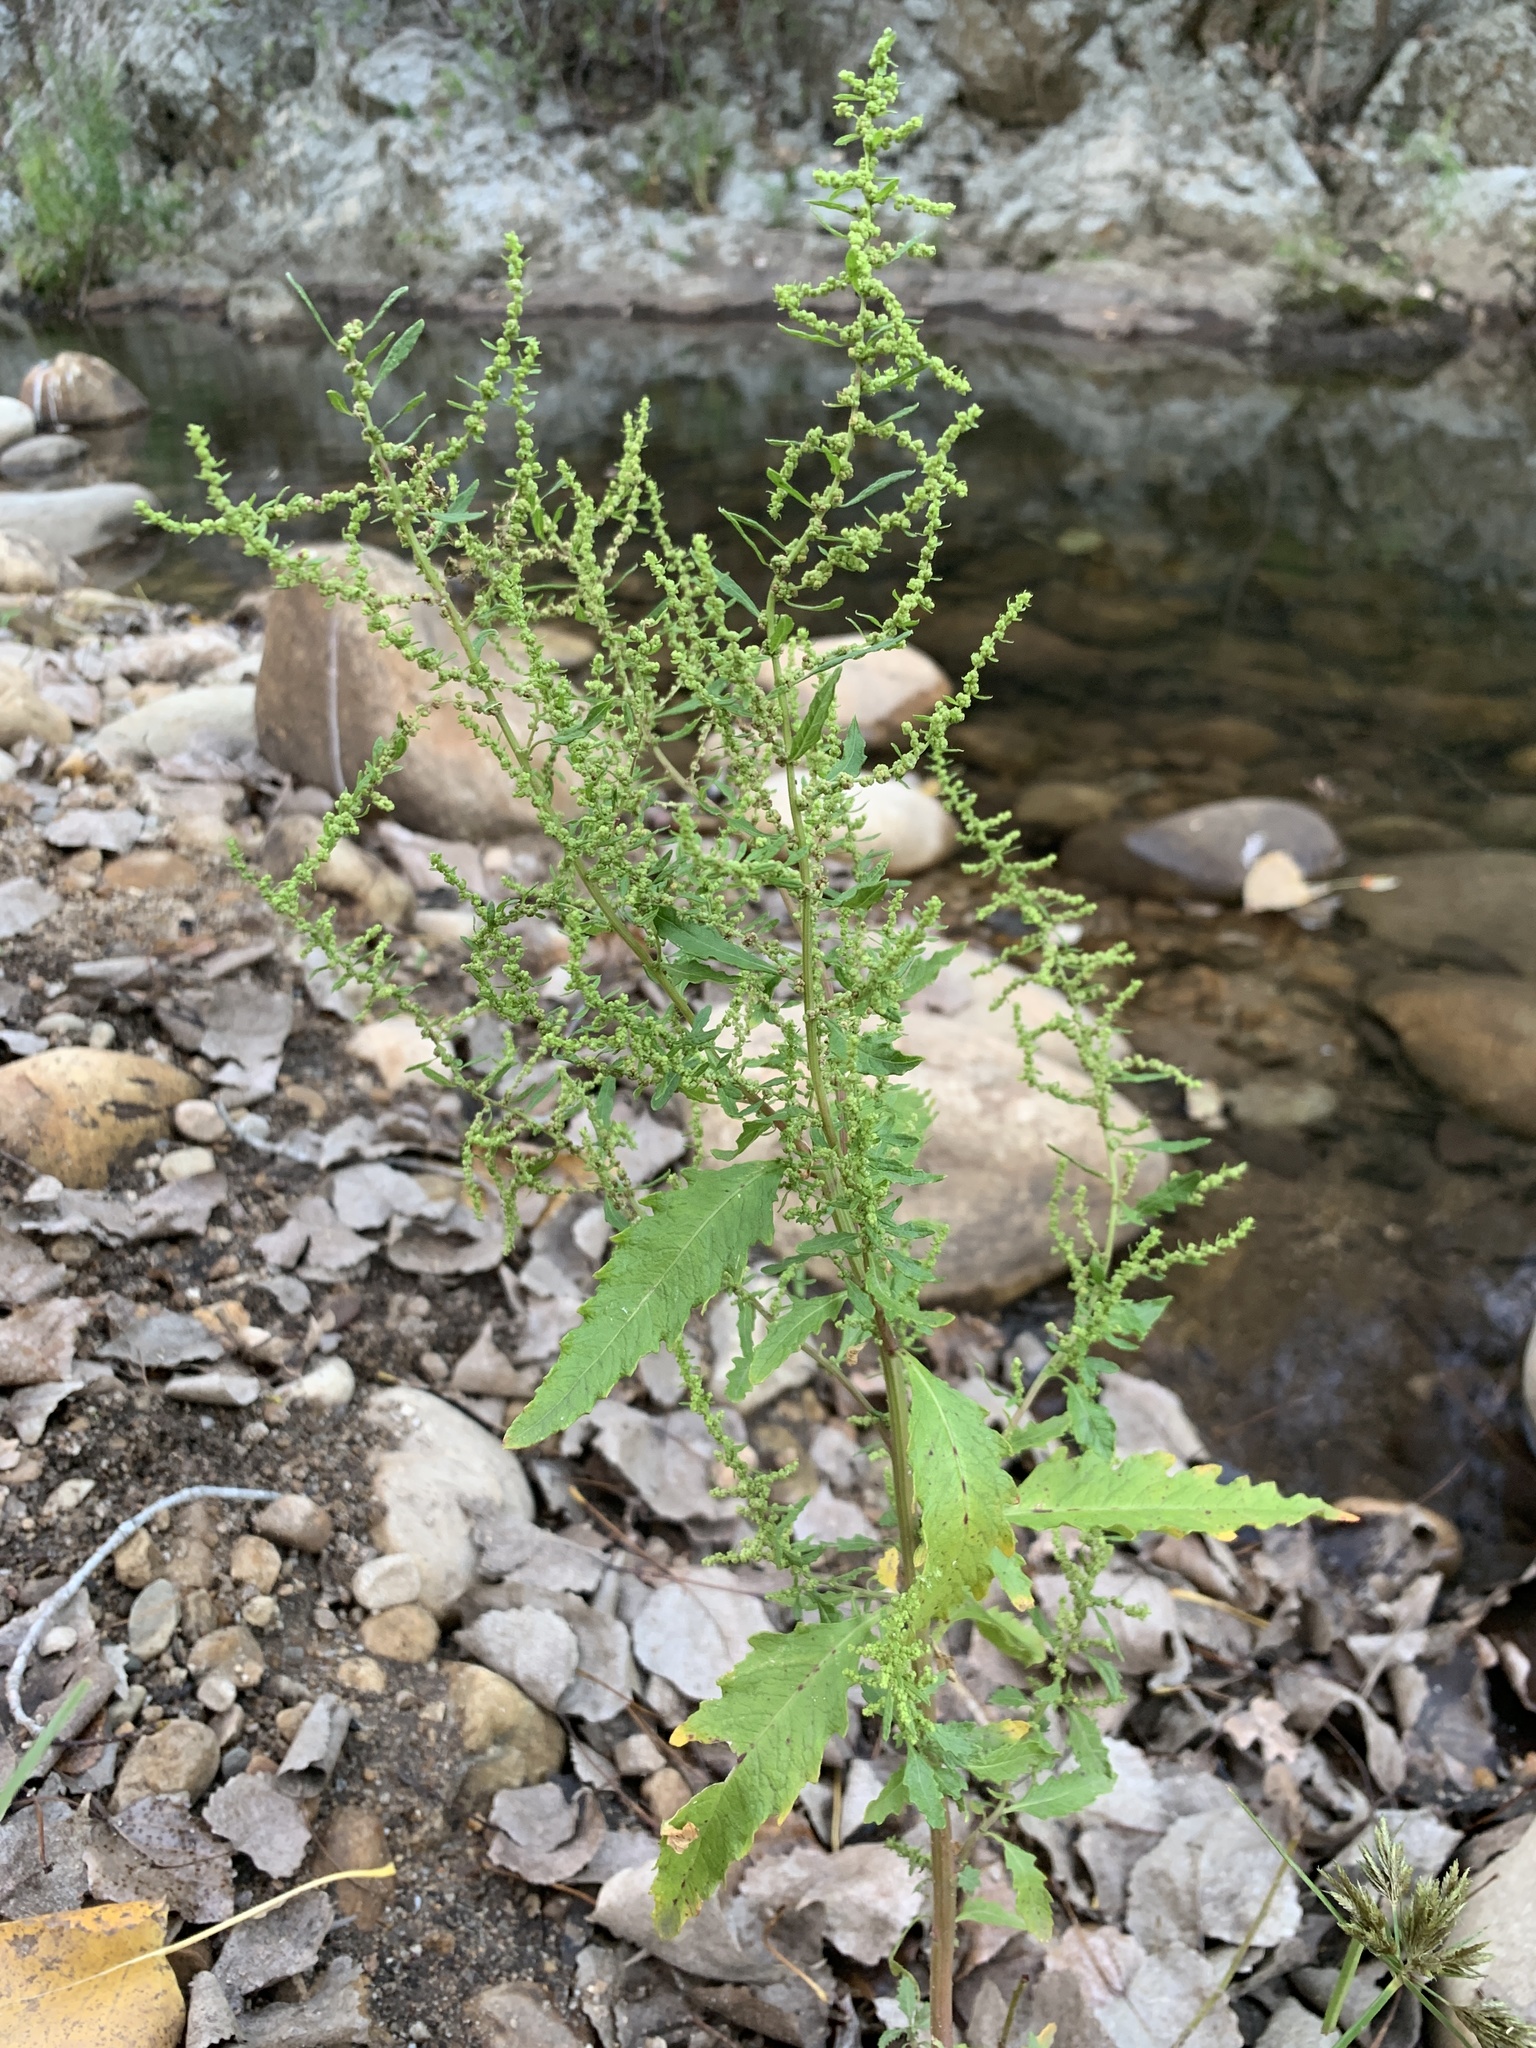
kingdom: Plantae
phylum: Tracheophyta
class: Magnoliopsida
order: Caryophyllales
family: Amaranthaceae
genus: Dysphania
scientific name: Dysphania ambrosioides
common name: Wormseed
